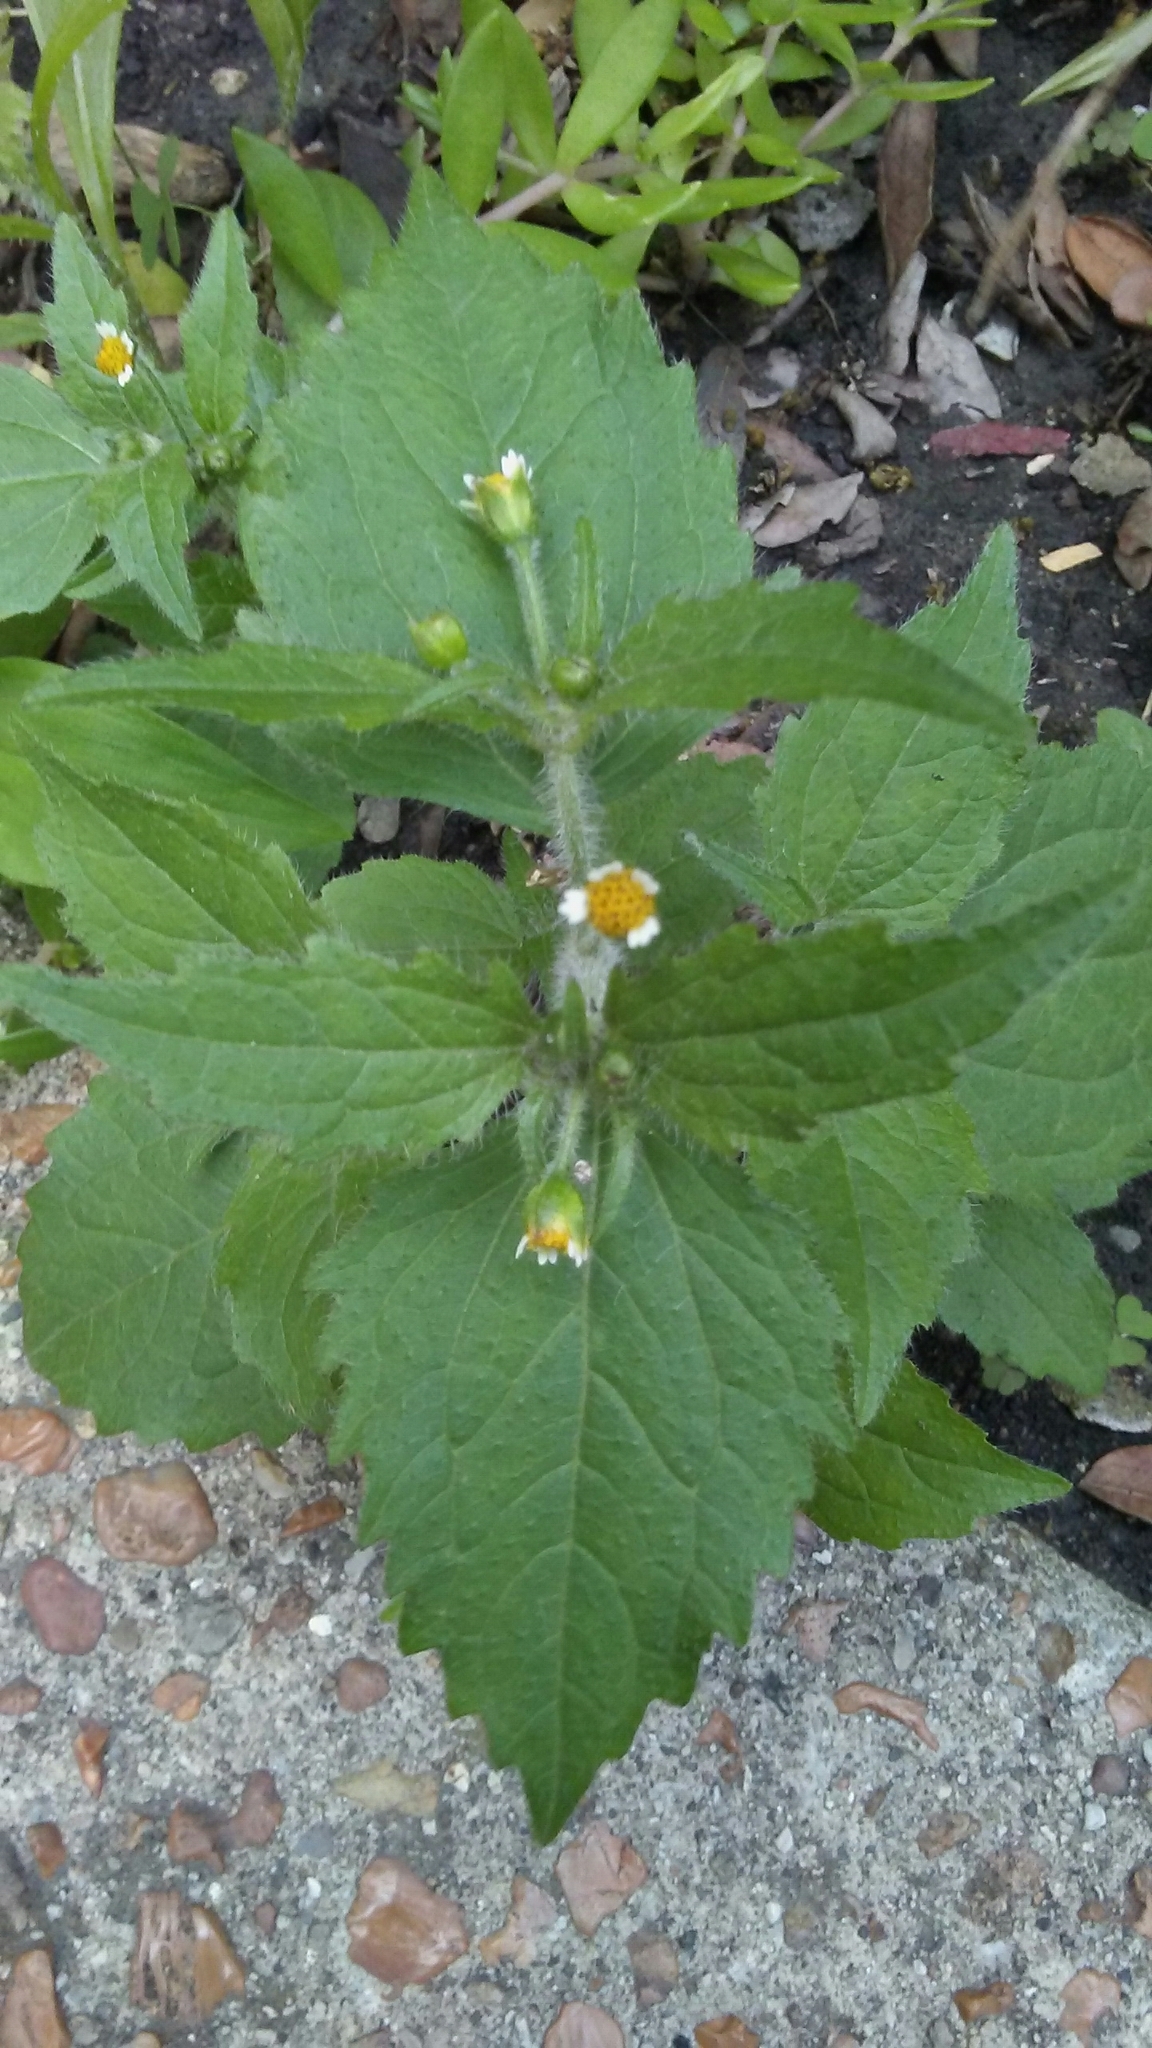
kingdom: Plantae
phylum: Tracheophyta
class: Magnoliopsida
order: Asterales
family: Asteraceae
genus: Galinsoga
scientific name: Galinsoga quadriradiata
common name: Shaggy soldier
